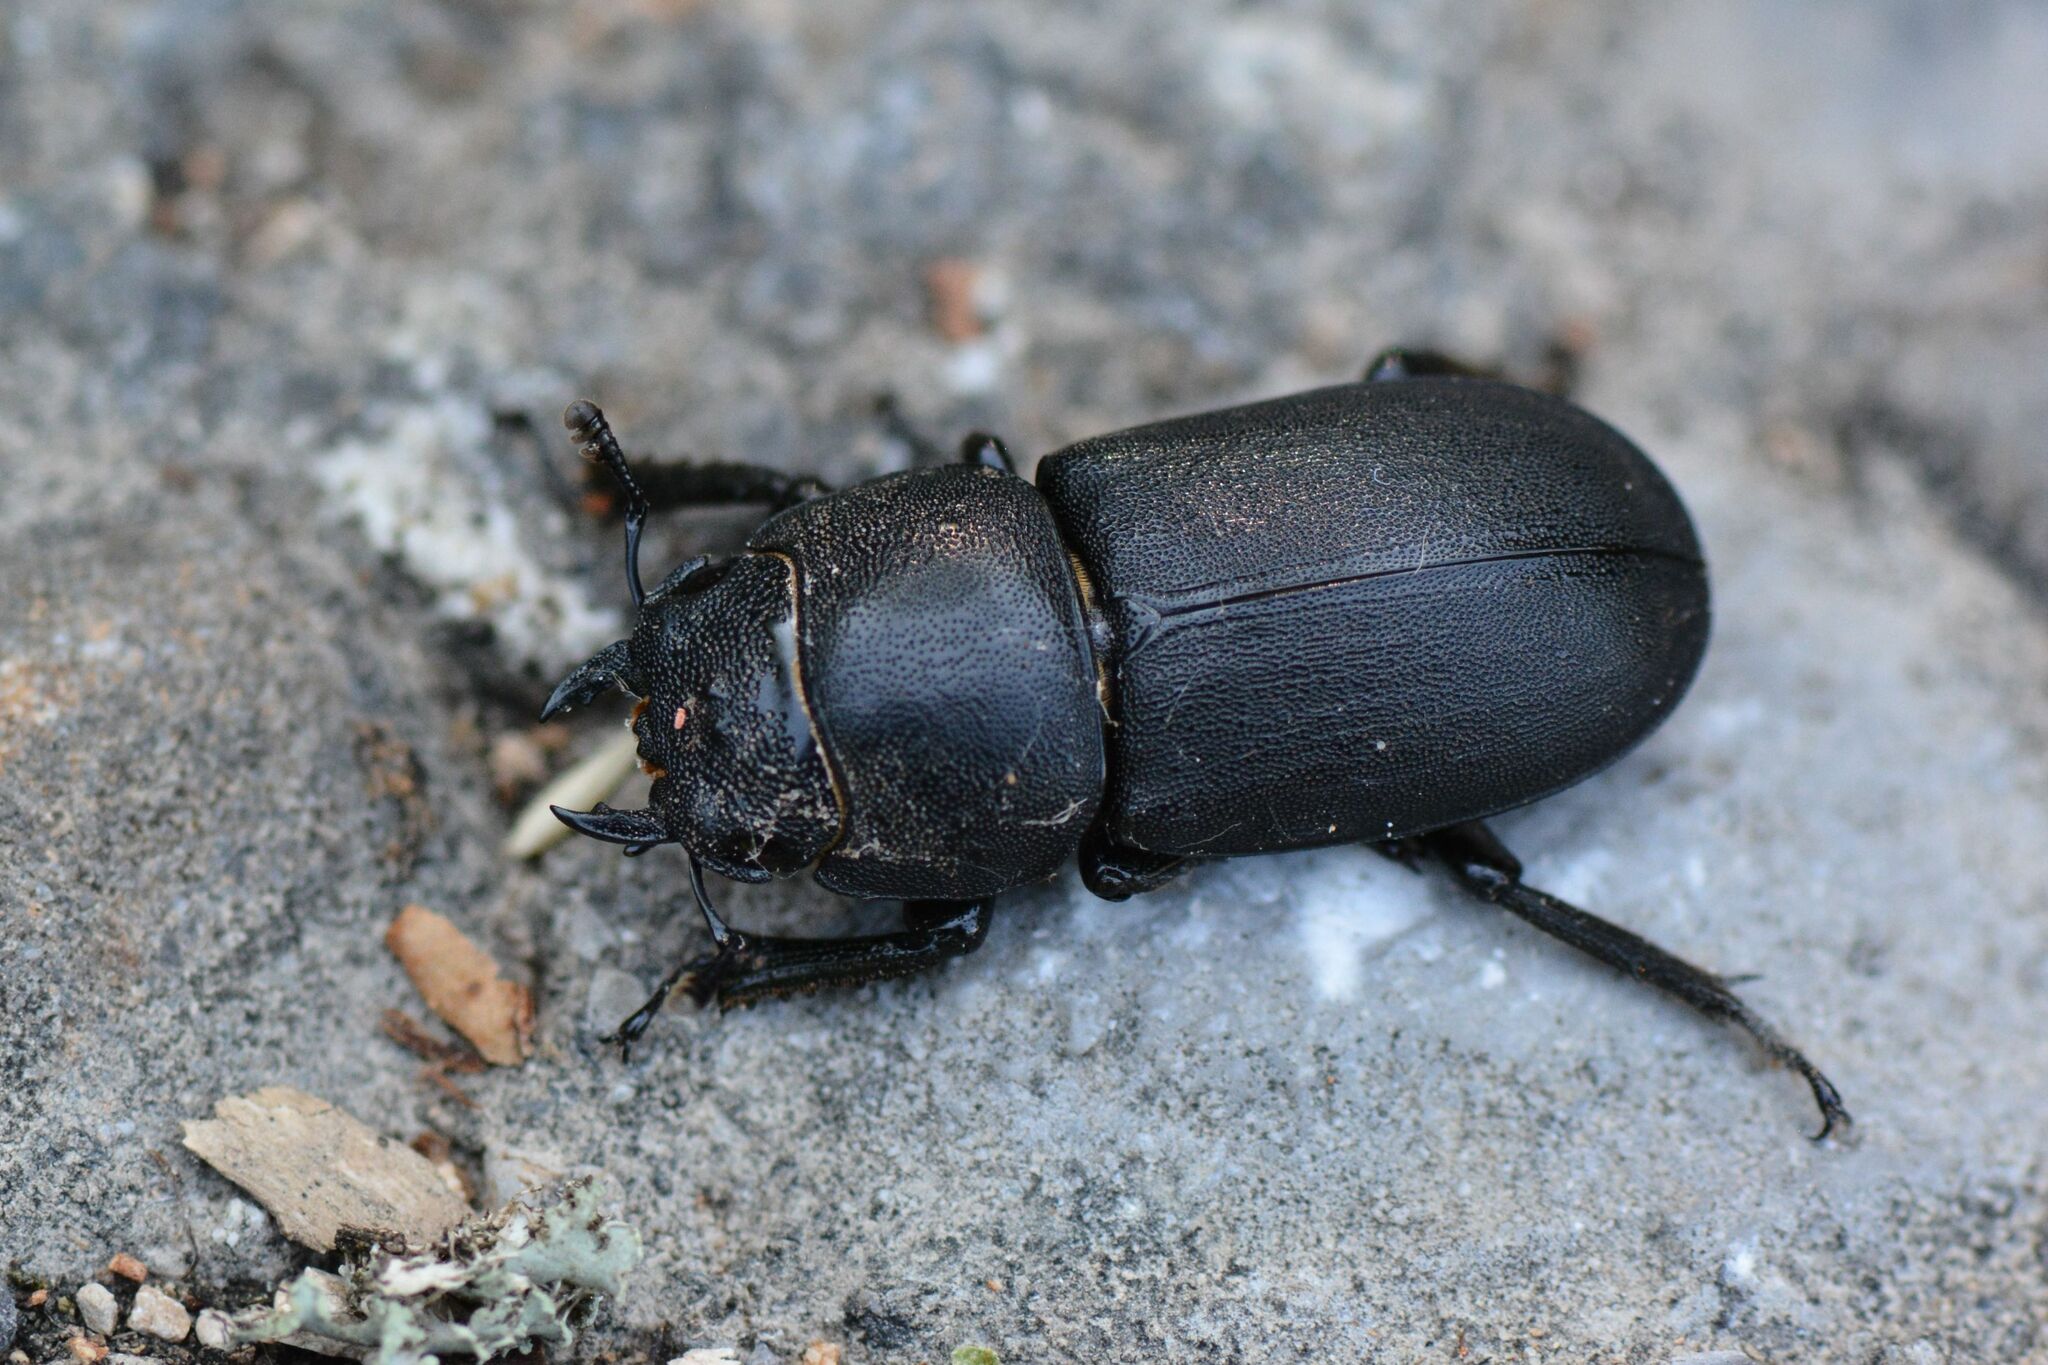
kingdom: Animalia
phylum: Arthropoda
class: Insecta
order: Coleoptera
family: Lucanidae
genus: Dorcus
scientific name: Dorcus parallelipipedus
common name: Lesser stag beetle
